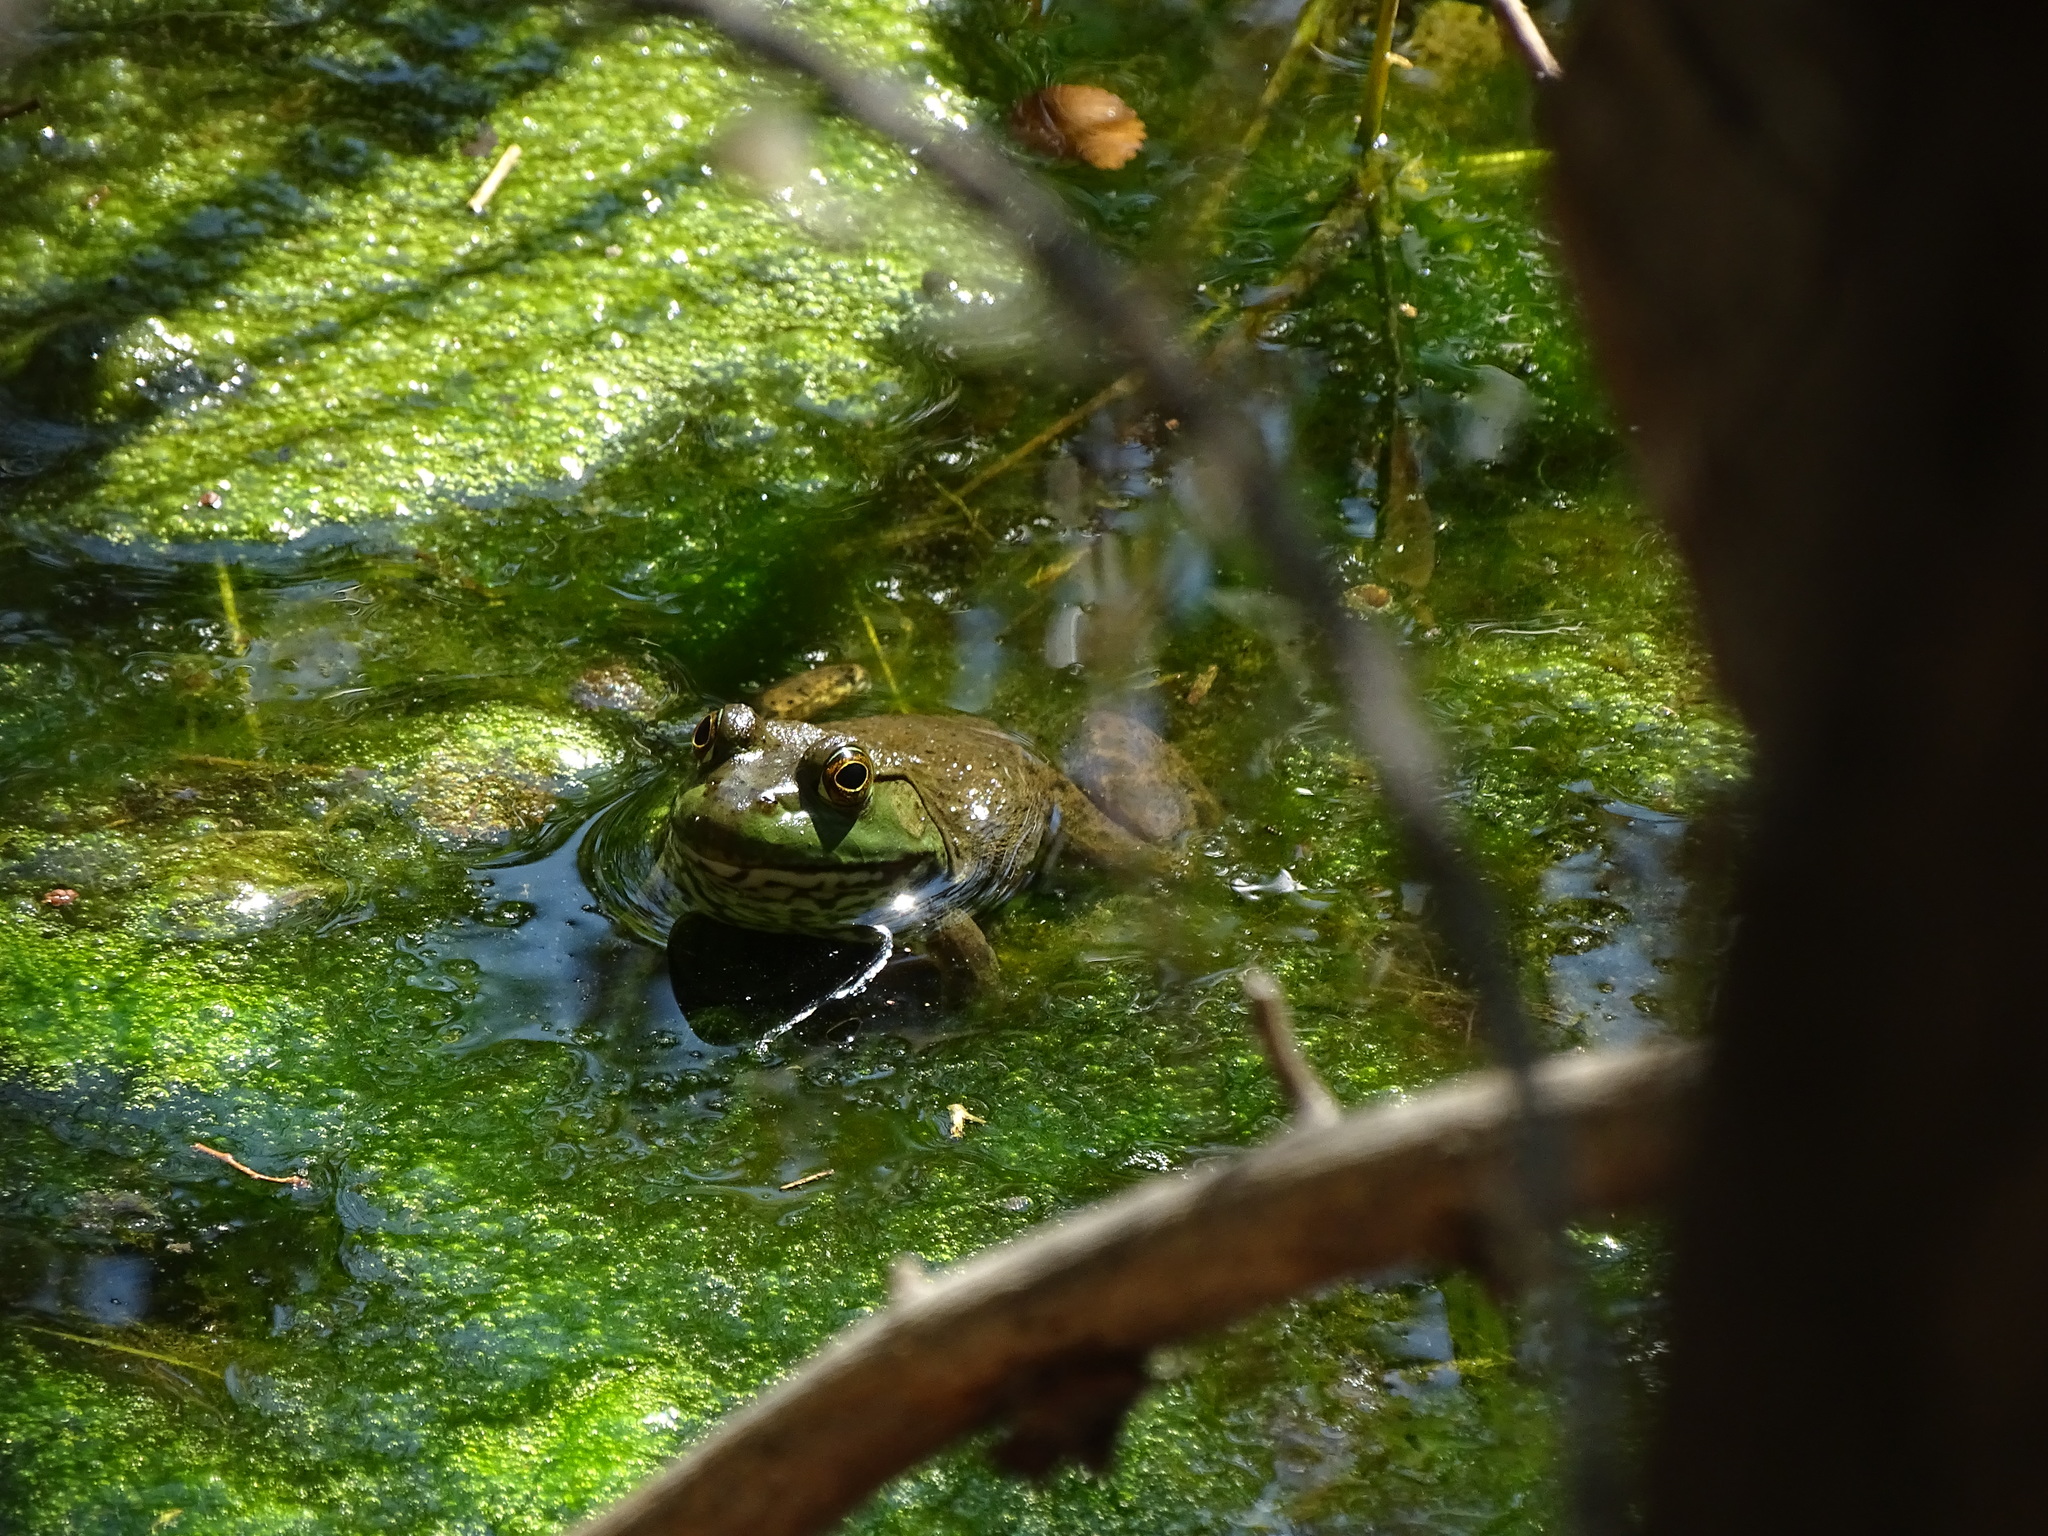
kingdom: Animalia
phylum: Chordata
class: Amphibia
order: Anura
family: Ranidae
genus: Lithobates
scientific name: Lithobates catesbeianus
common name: American bullfrog
